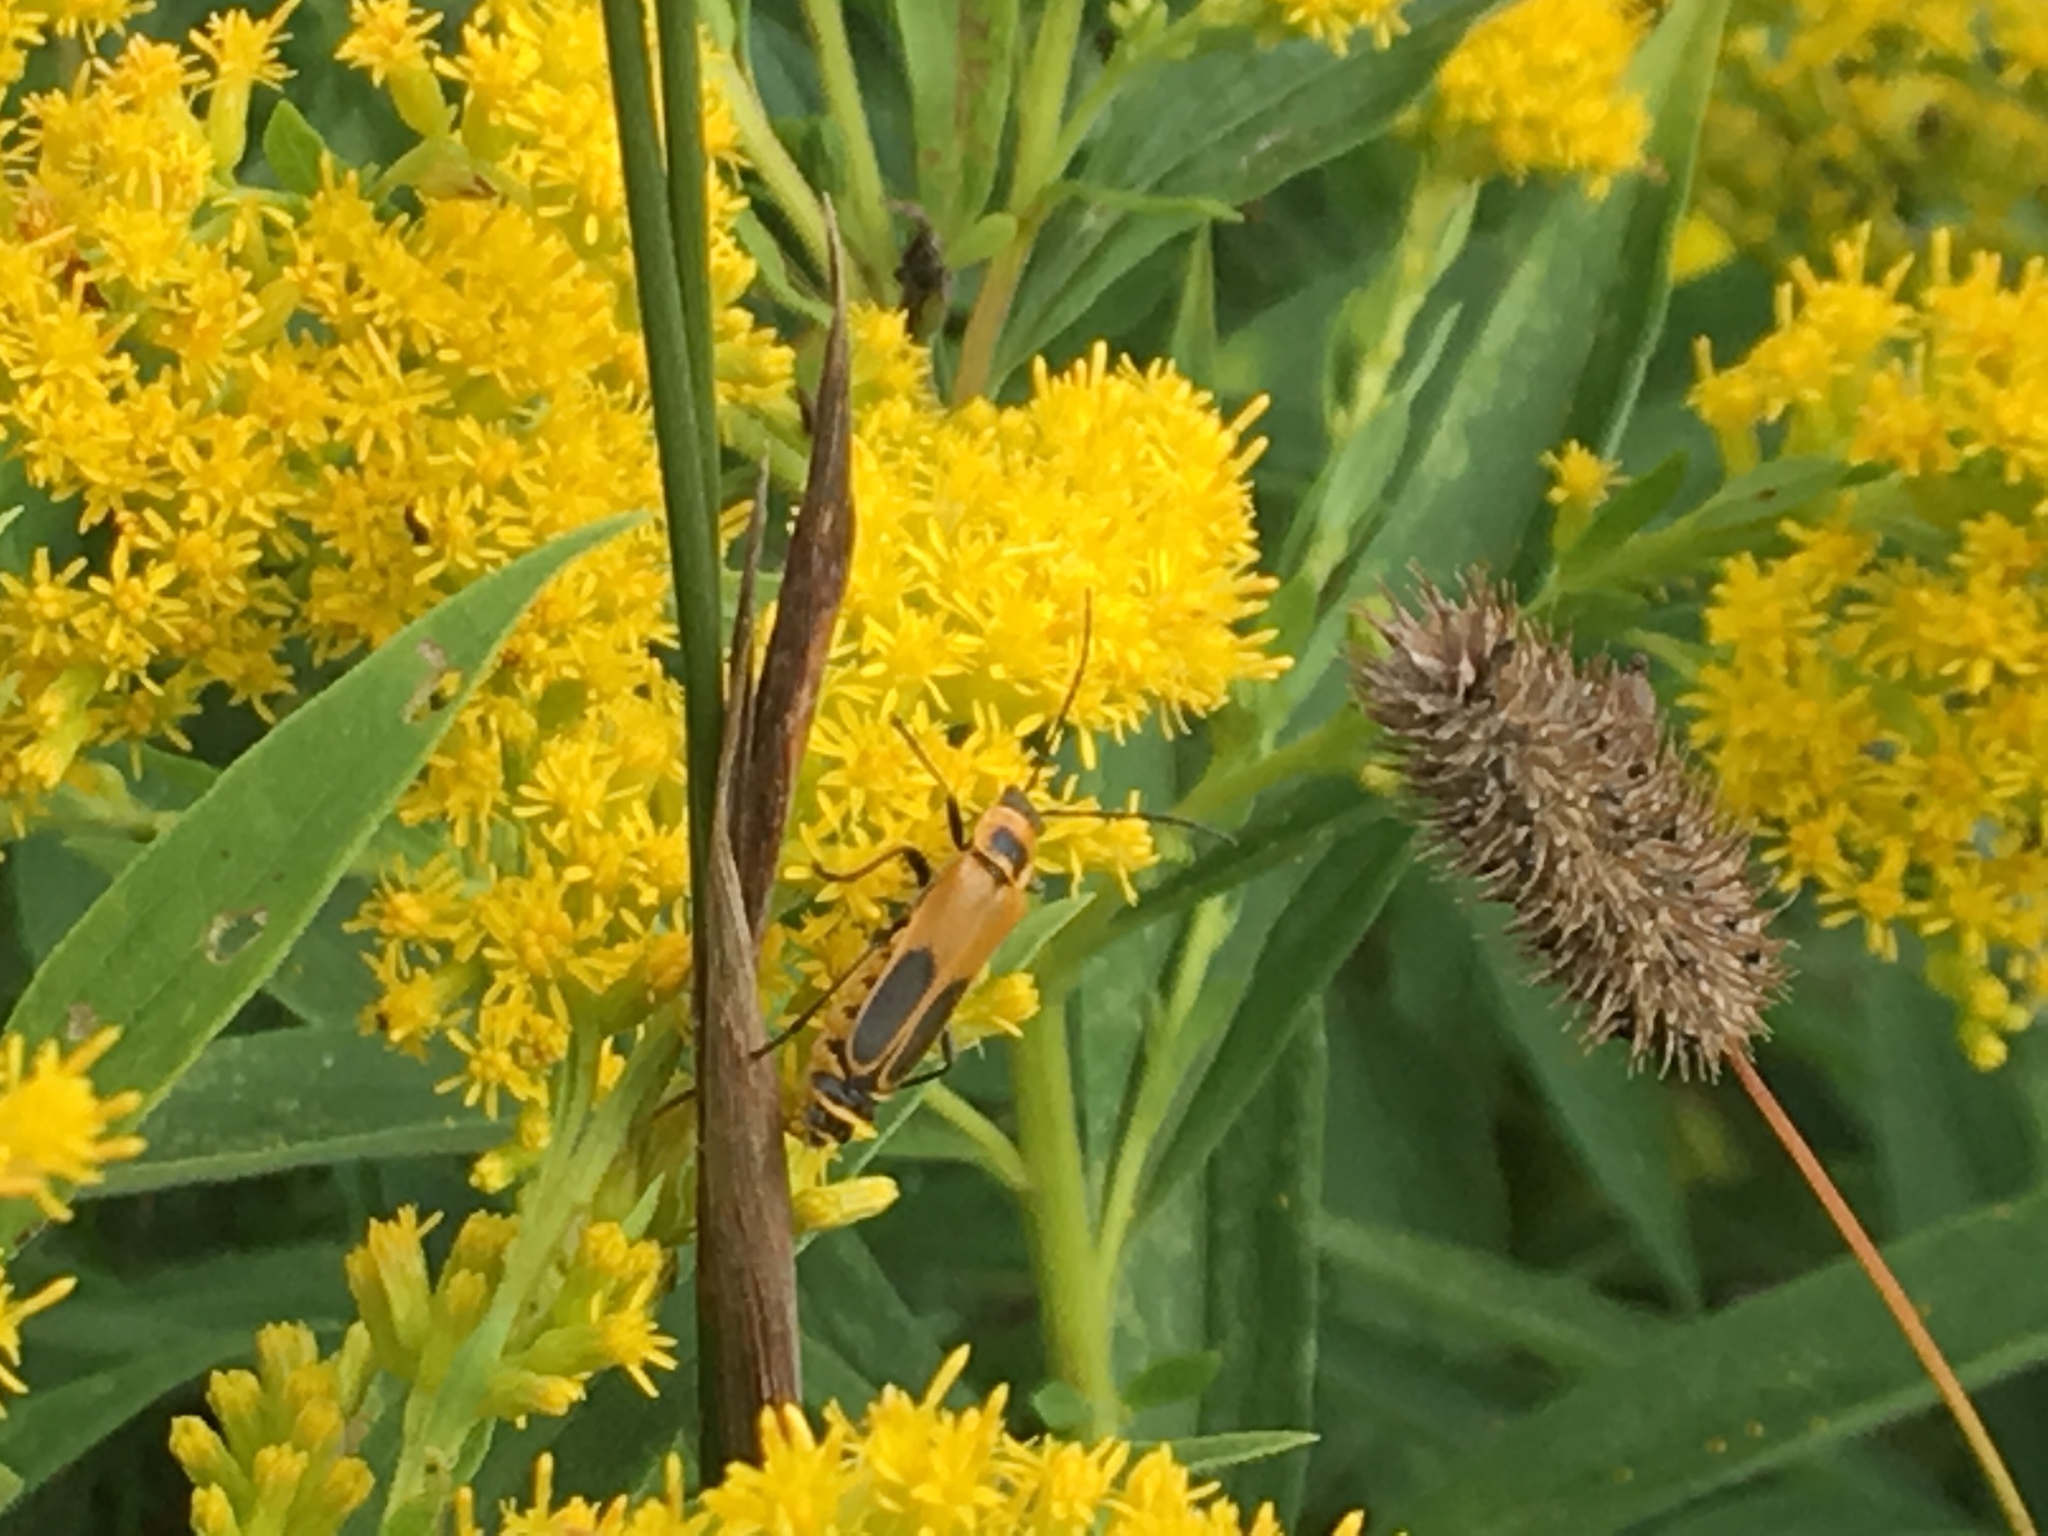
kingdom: Animalia
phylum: Arthropoda
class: Insecta
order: Coleoptera
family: Cantharidae
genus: Chauliognathus
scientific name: Chauliognathus pensylvanicus
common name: Goldenrod soldier beetle
